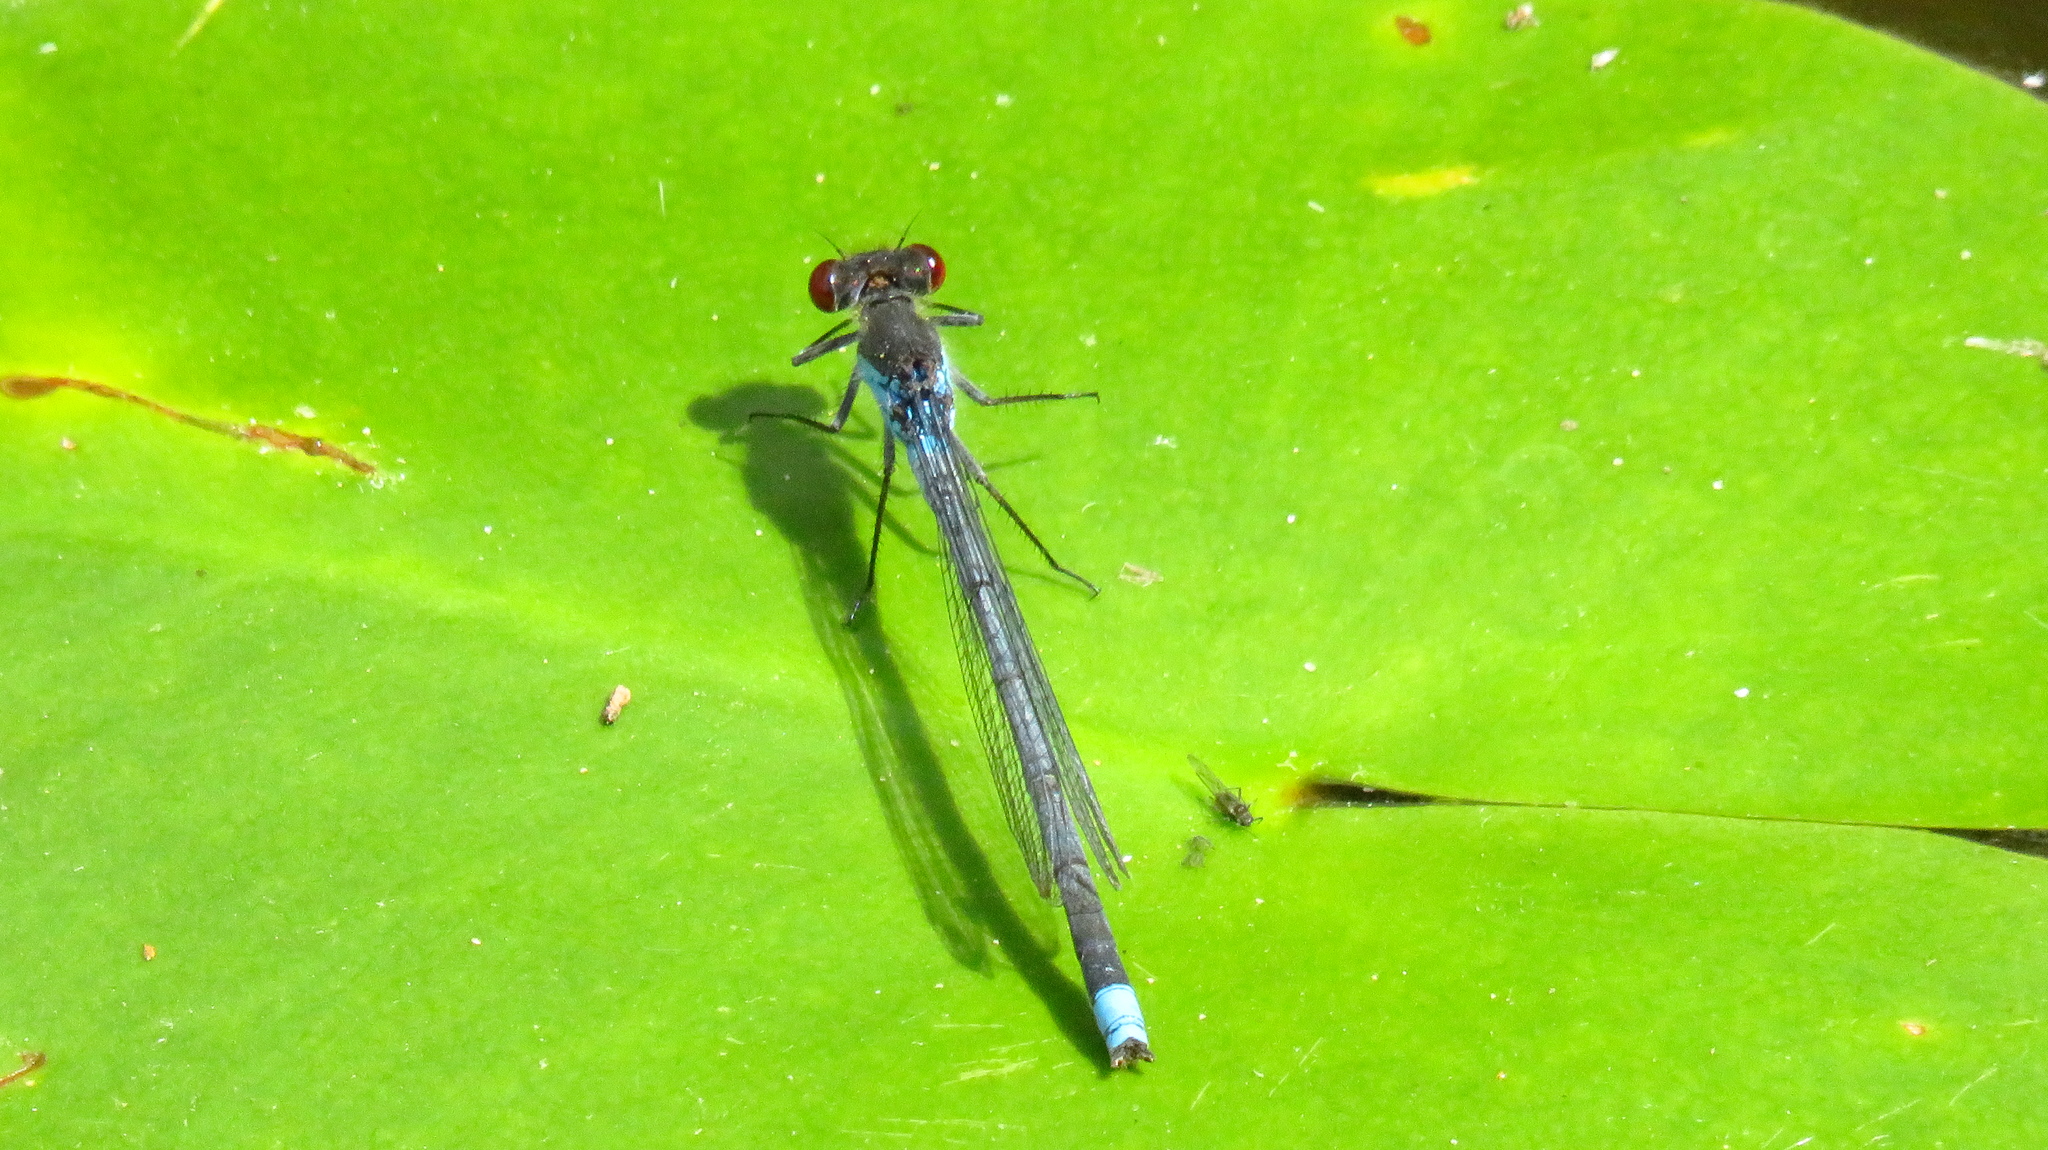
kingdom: Animalia
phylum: Arthropoda
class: Insecta
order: Odonata
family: Coenagrionidae
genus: Erythromma
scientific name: Erythromma najas
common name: Red-eyed damselfly
